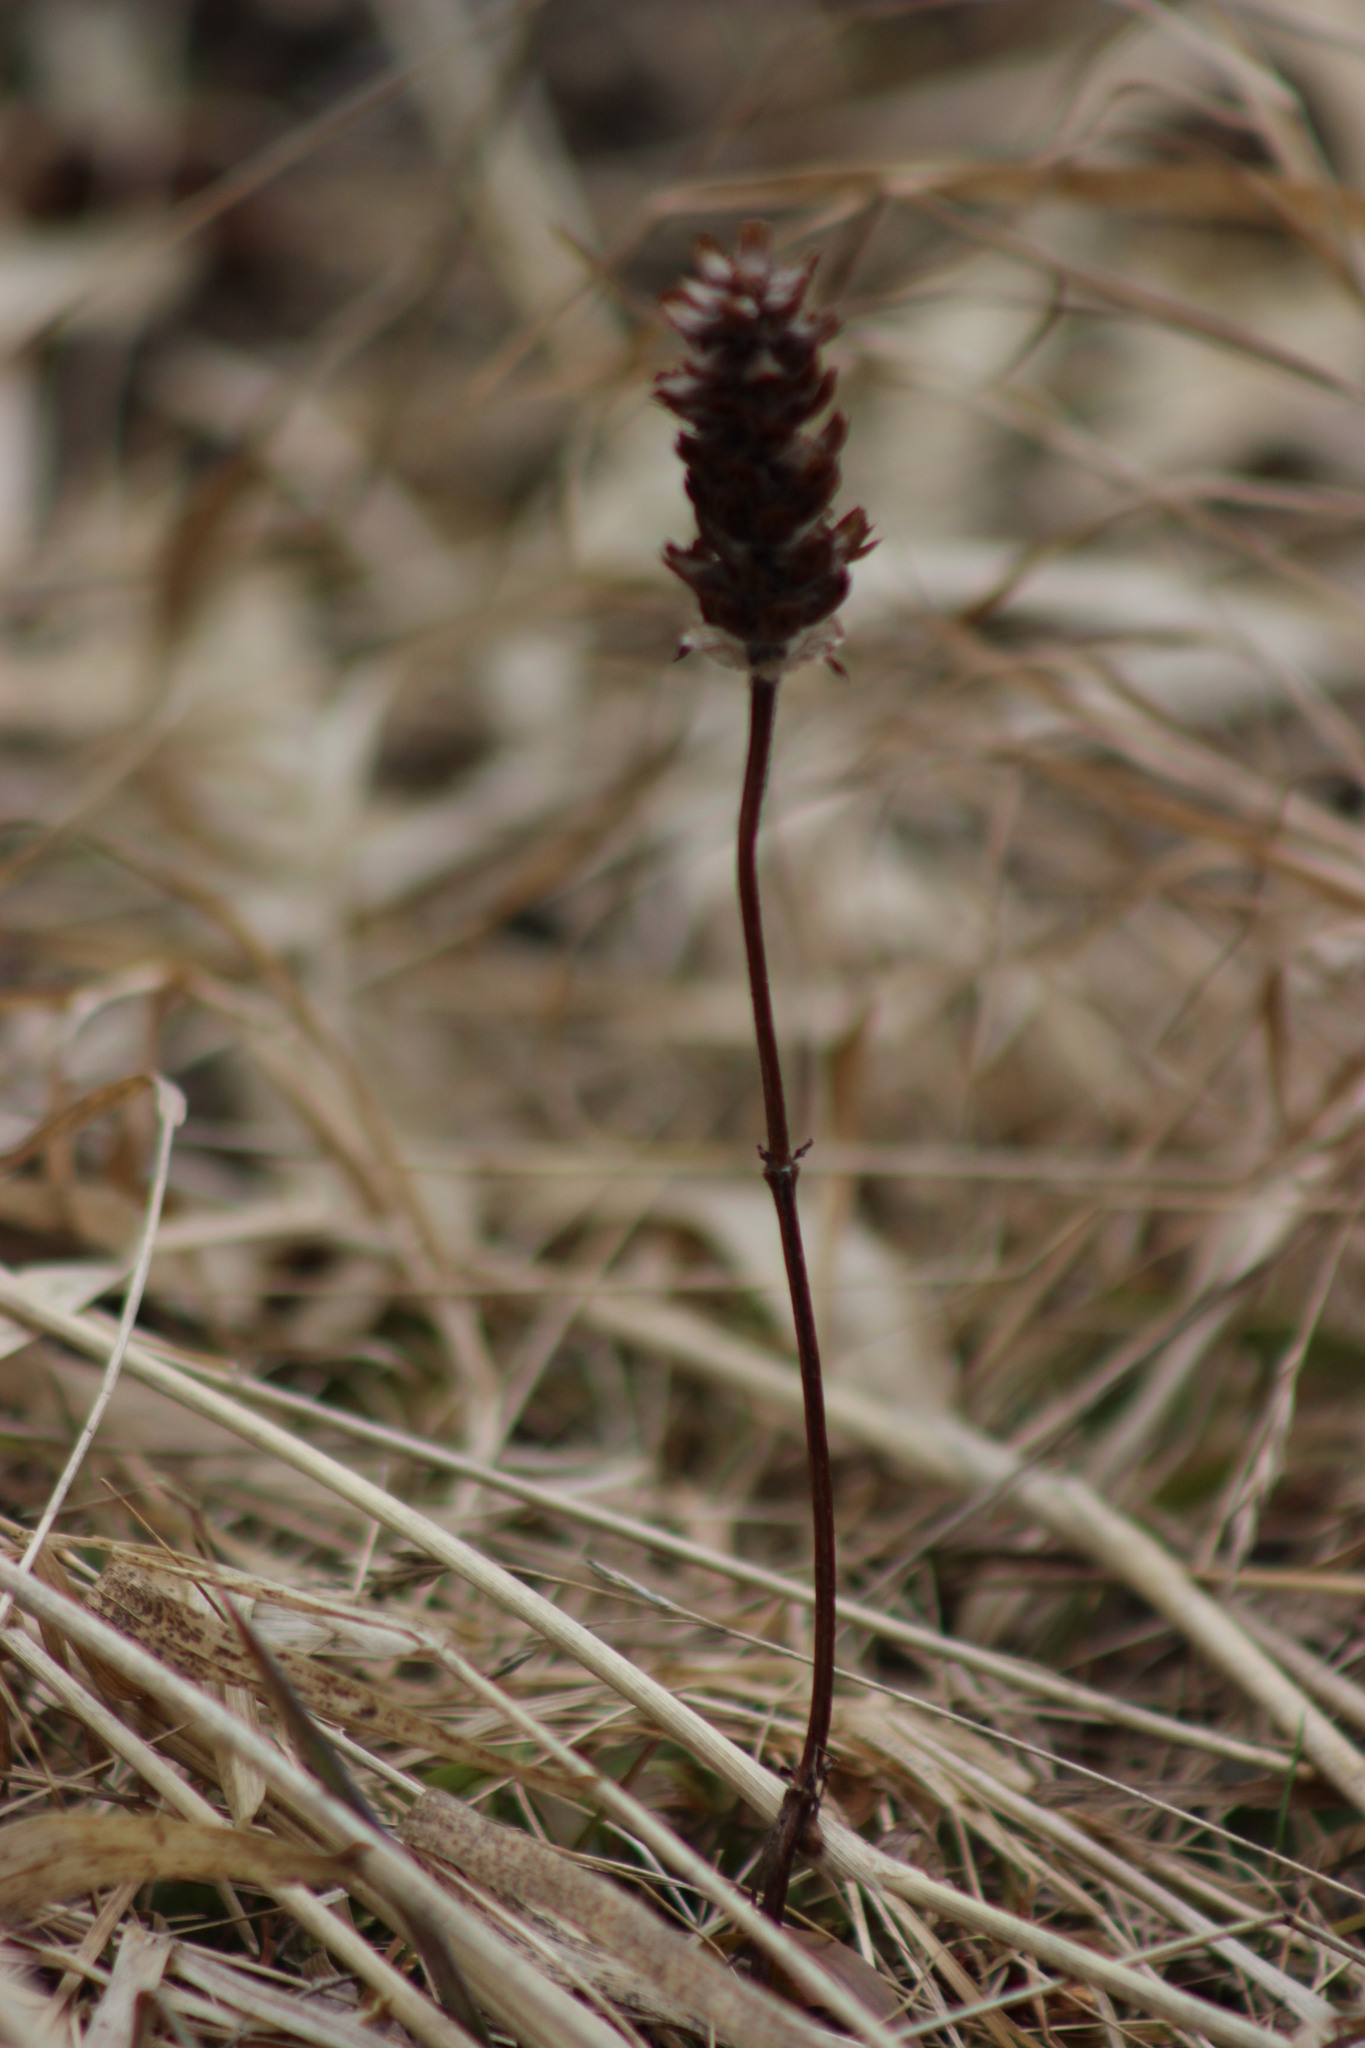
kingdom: Plantae
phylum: Tracheophyta
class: Magnoliopsida
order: Lamiales
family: Lamiaceae
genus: Prunella
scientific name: Prunella vulgaris
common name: Heal-all
